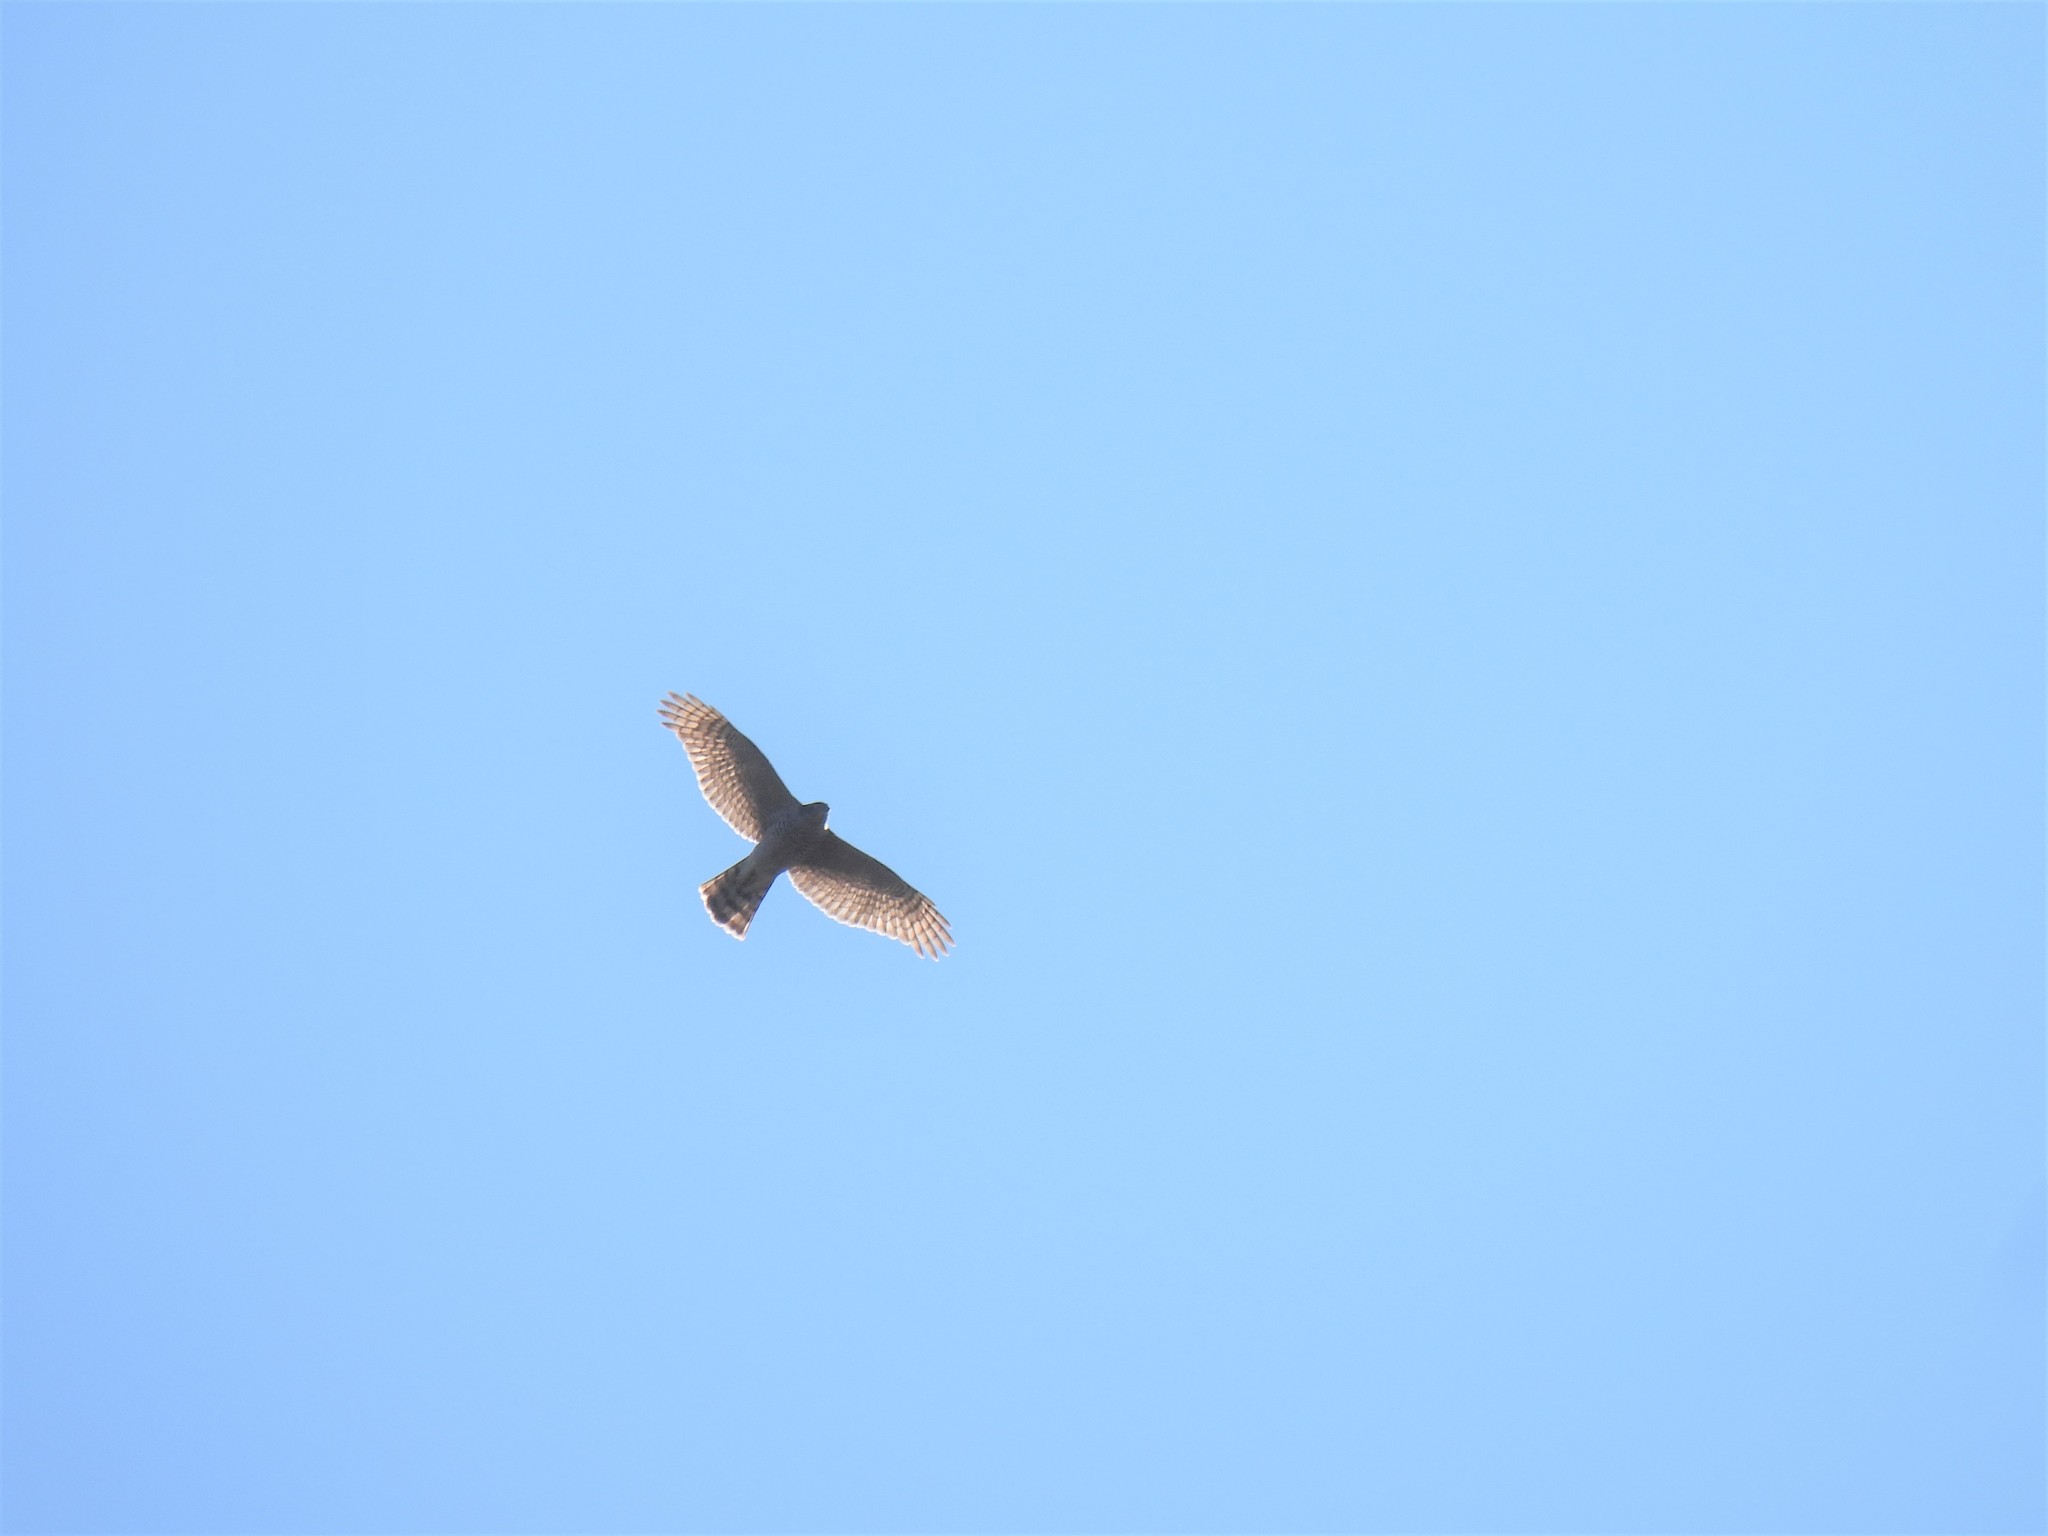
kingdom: Animalia
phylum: Chordata
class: Aves
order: Accipitriformes
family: Accipitridae
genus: Accipiter
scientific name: Accipiter nisus
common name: Eurasian sparrowhawk
